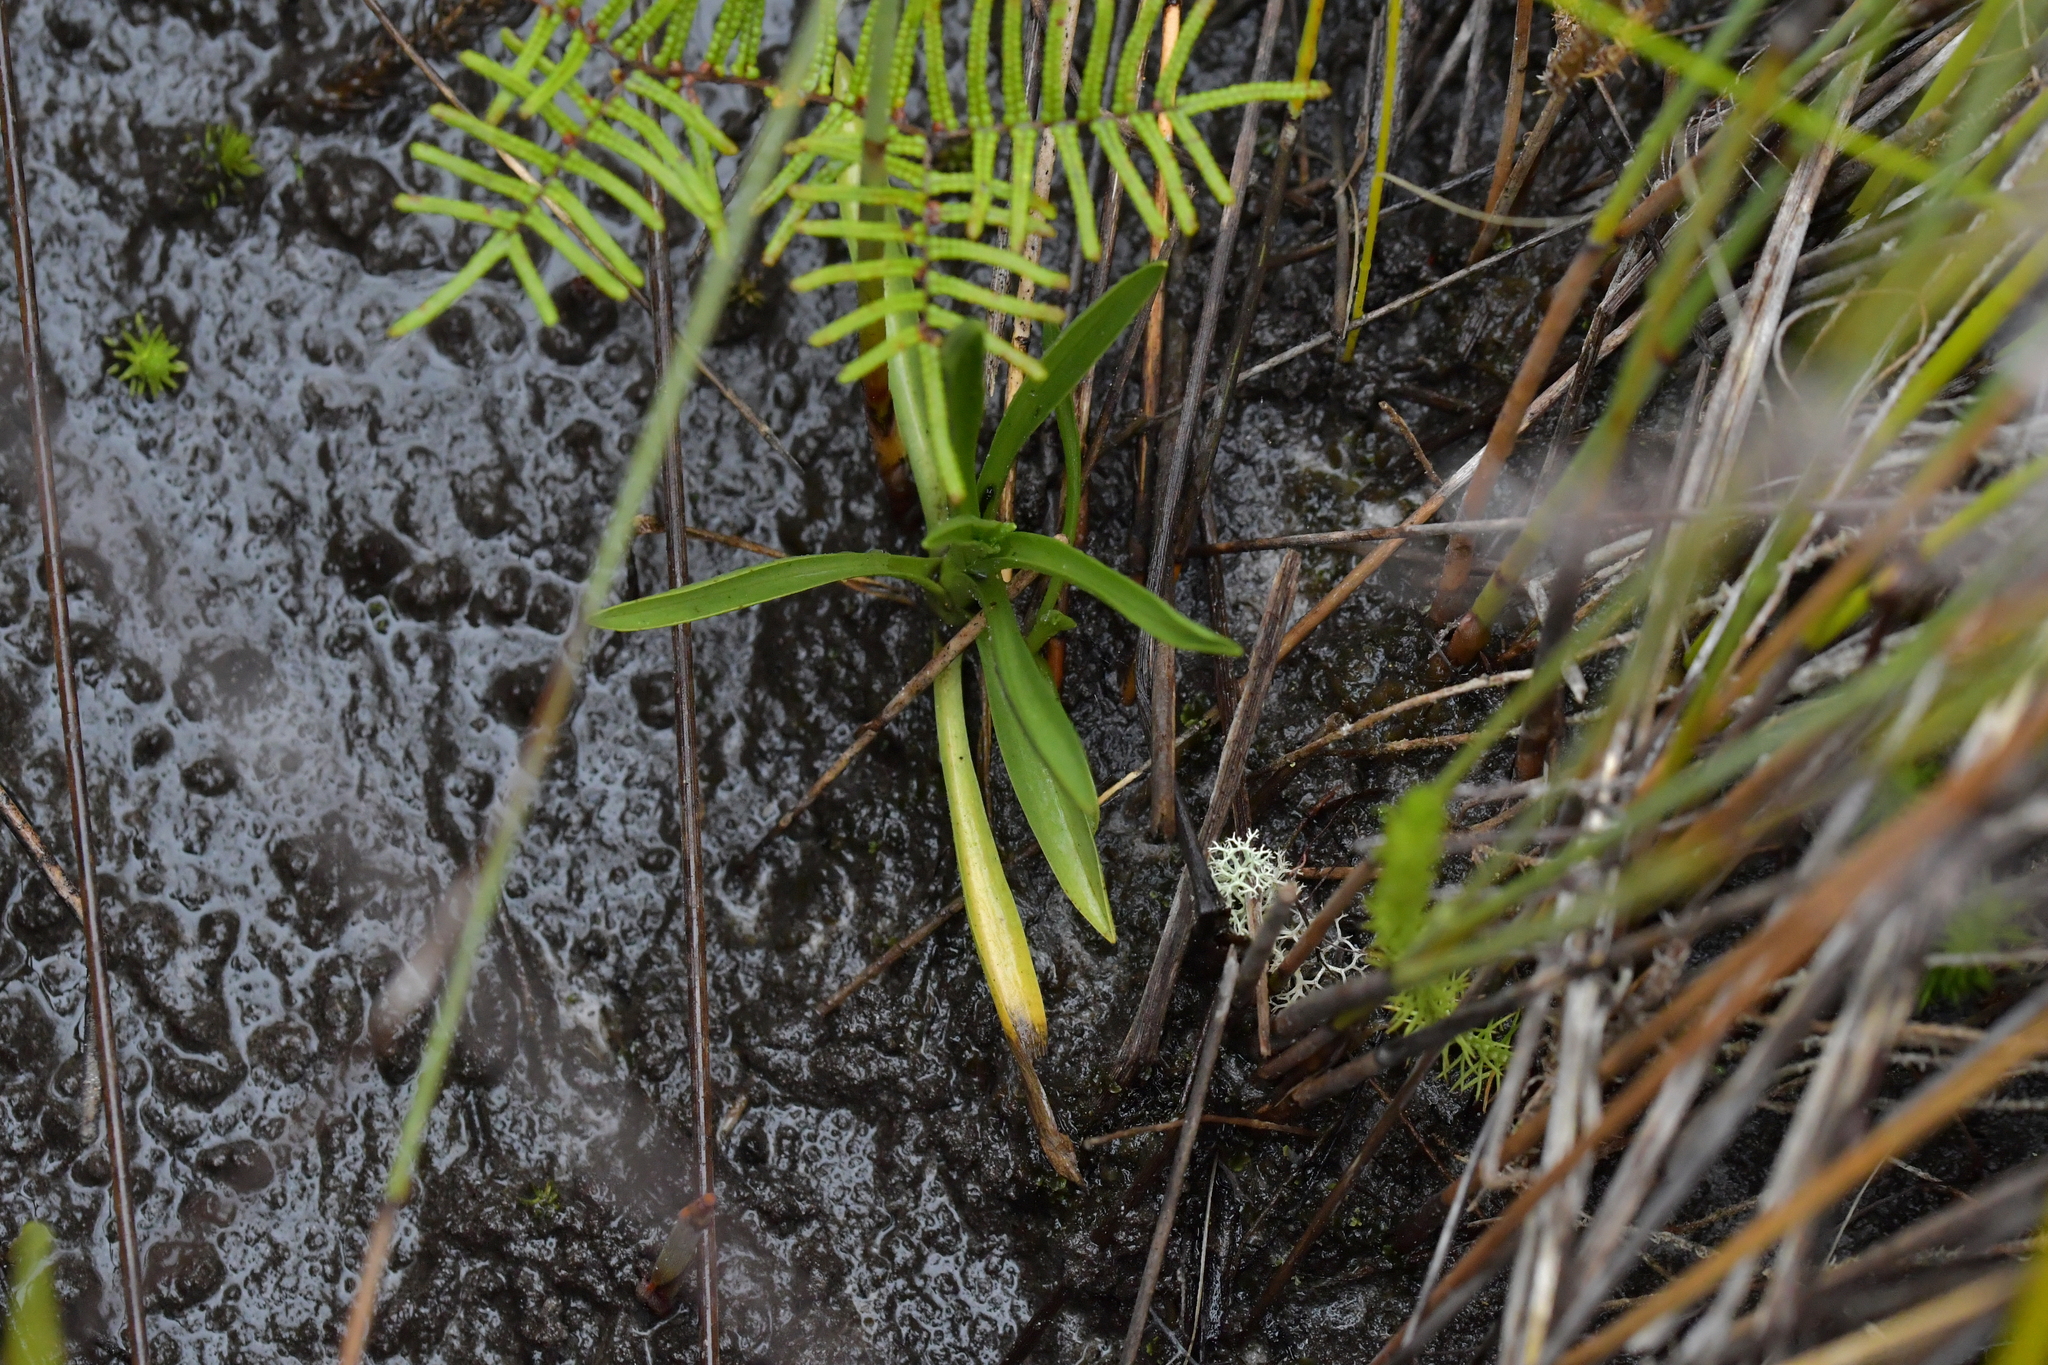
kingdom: Plantae
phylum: Tracheophyta
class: Liliopsida
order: Asparagales
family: Orchidaceae
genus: Spiranthes
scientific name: Spiranthes australis
